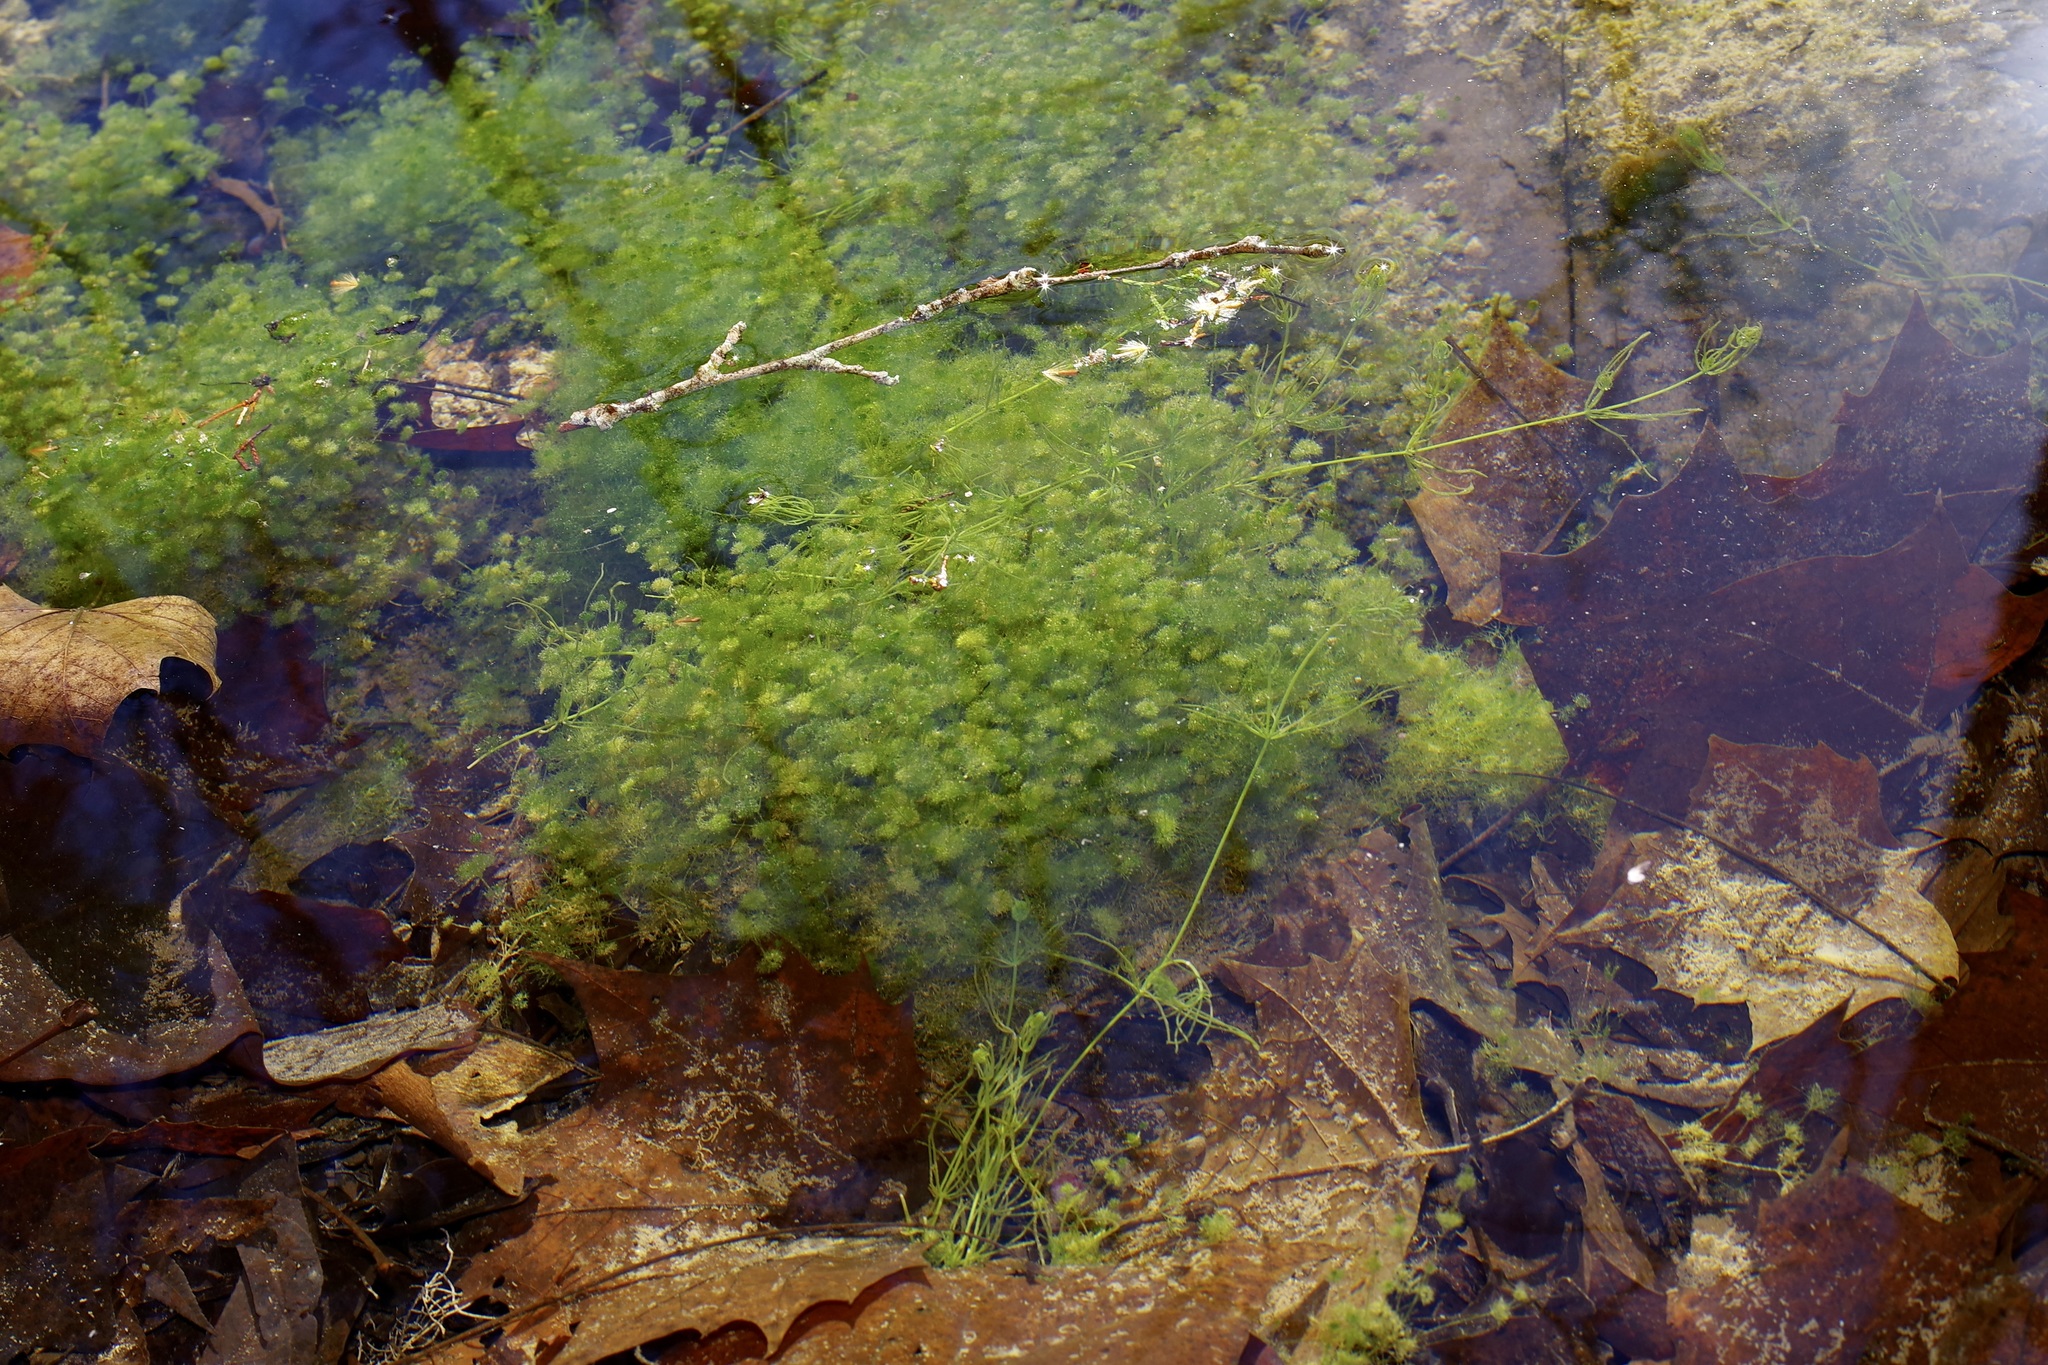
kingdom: Plantae
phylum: Charophyta
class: Charophyceae
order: Charales
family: Characeae
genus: Nitella
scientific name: Nitella tenuissima
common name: Compact stonewort
